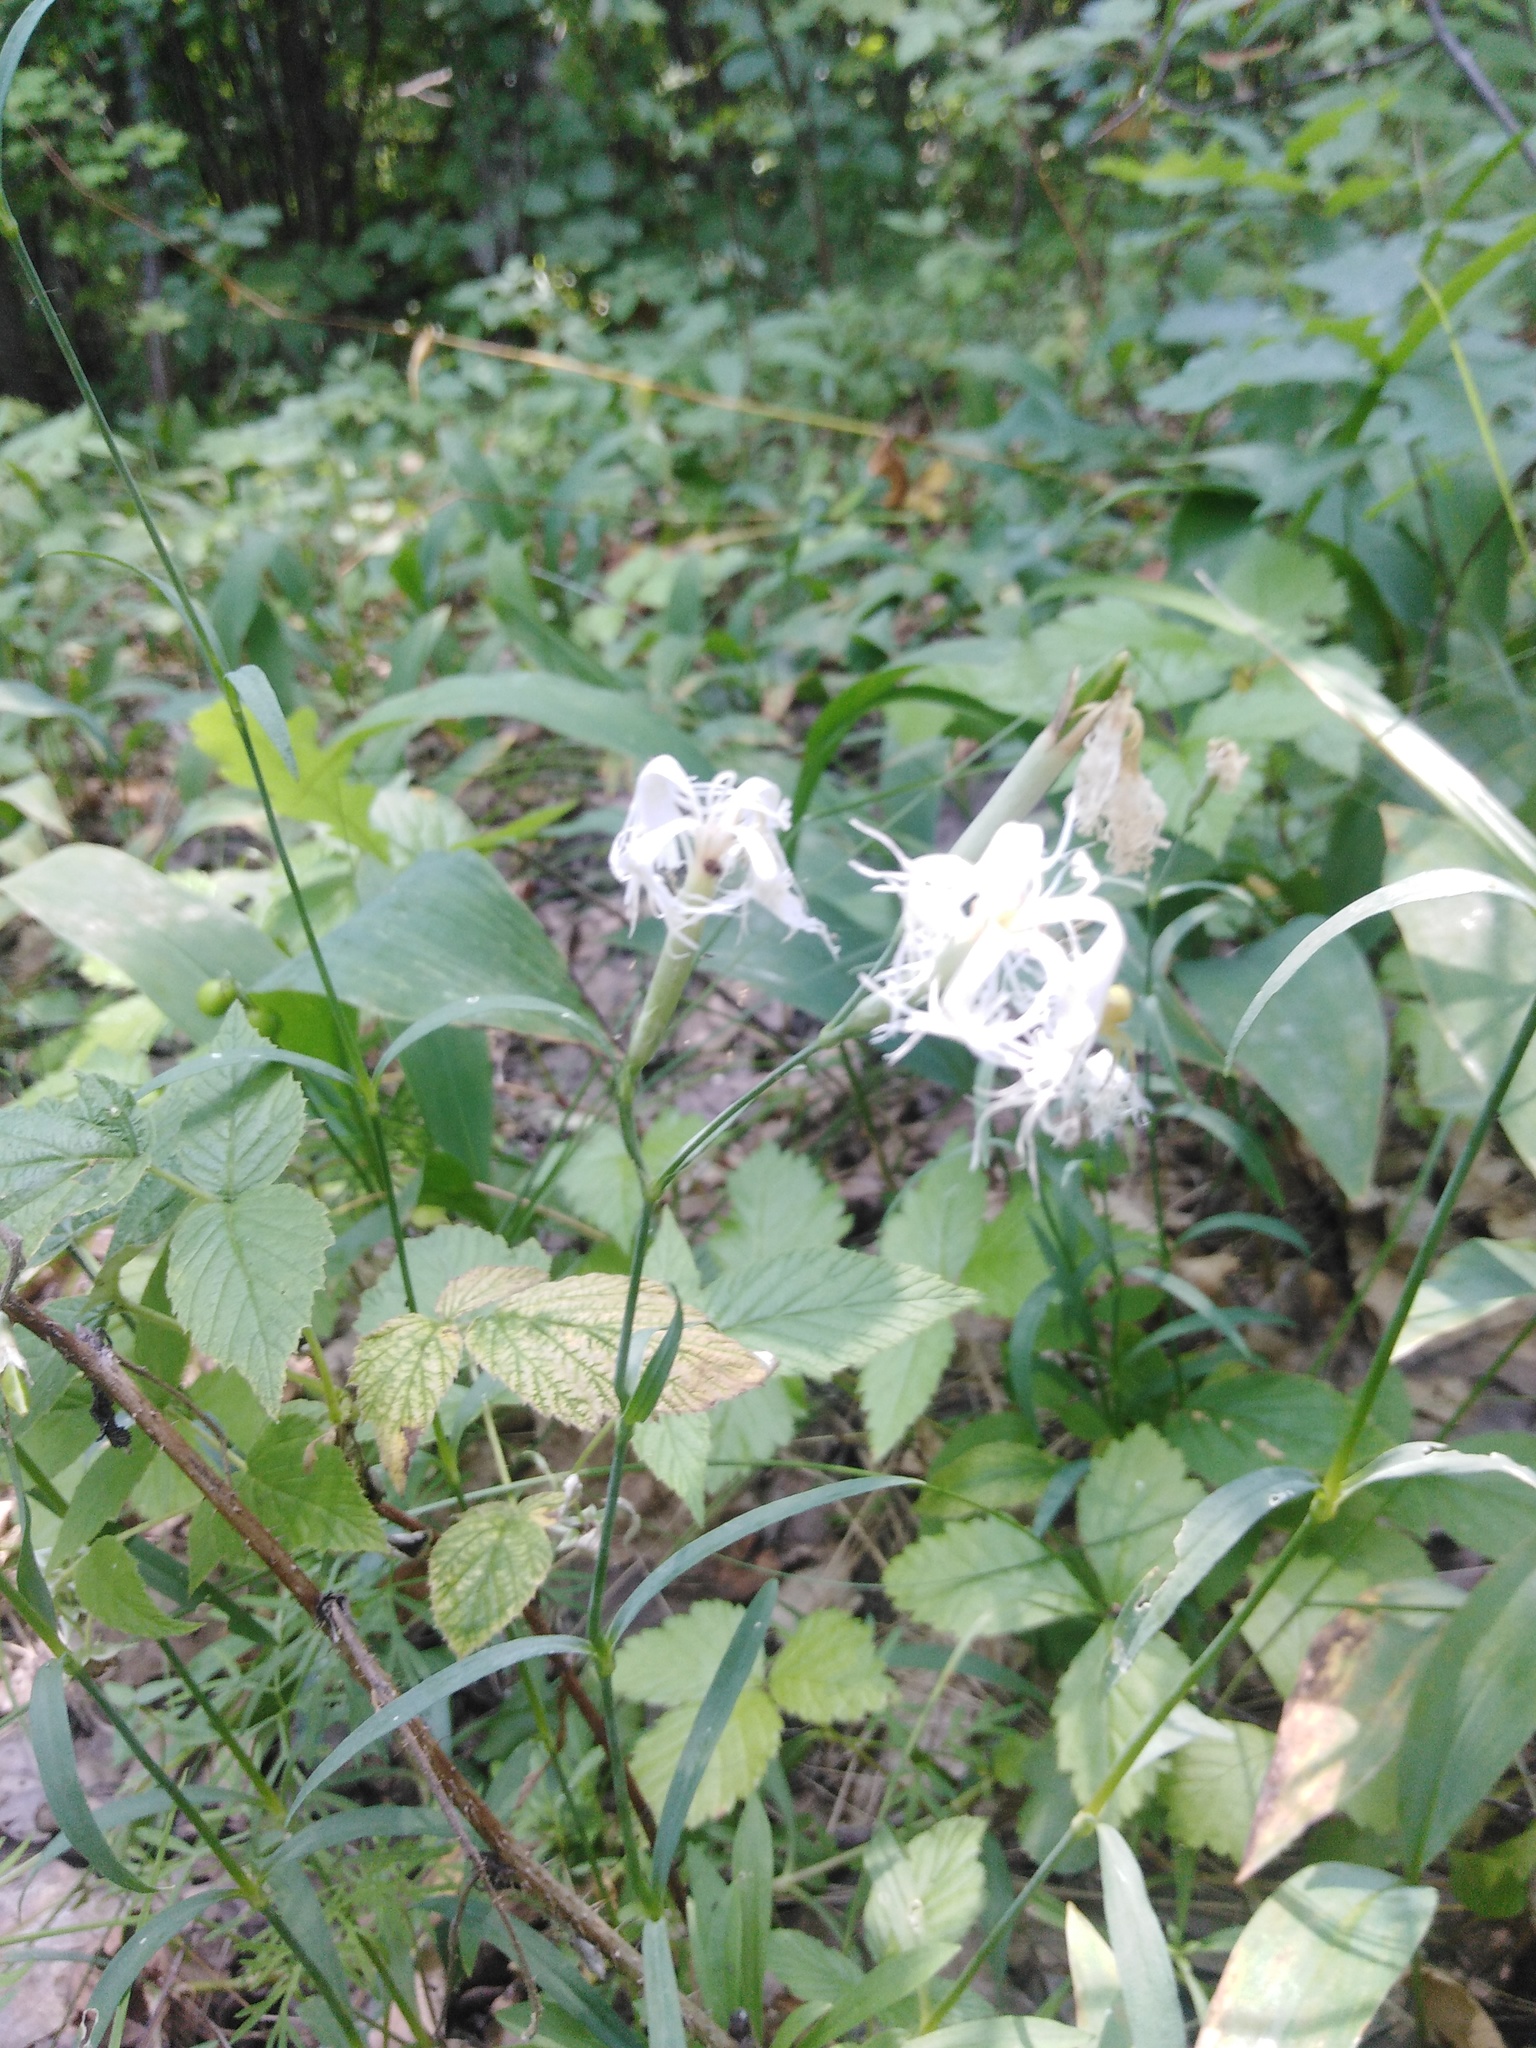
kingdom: Plantae
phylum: Tracheophyta
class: Magnoliopsida
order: Caryophyllales
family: Caryophyllaceae
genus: Dianthus
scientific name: Dianthus superbus
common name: Fringed pink
